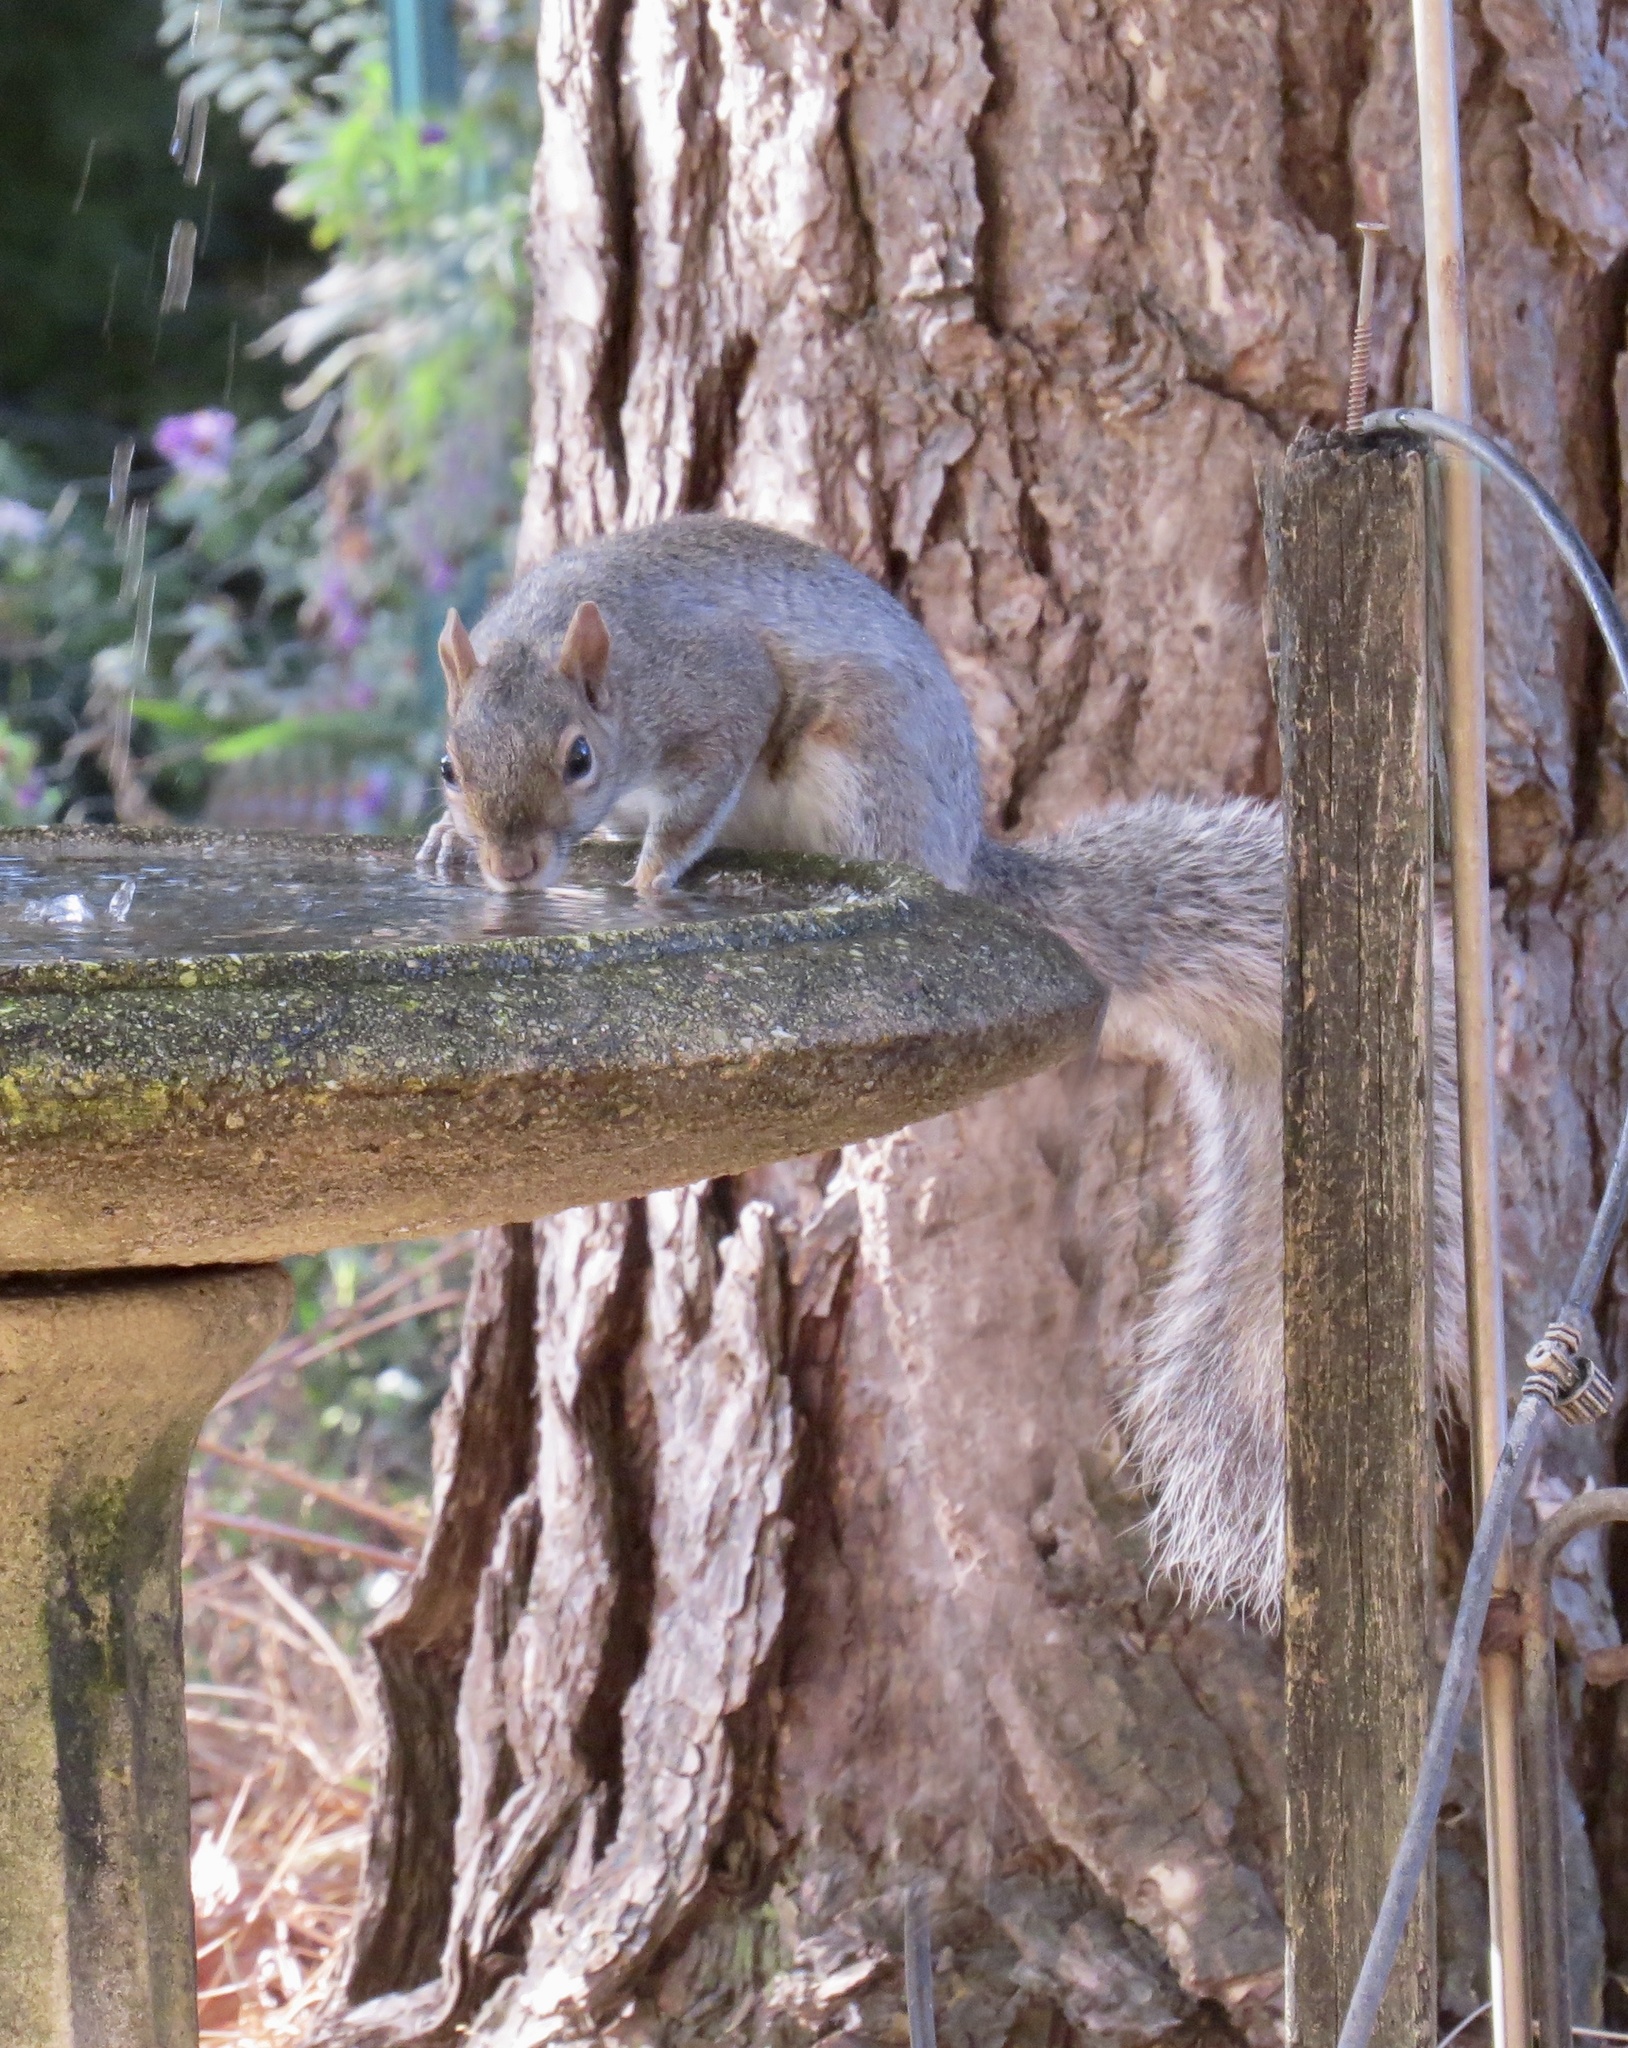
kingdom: Animalia
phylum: Chordata
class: Mammalia
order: Rodentia
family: Sciuridae
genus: Sciurus
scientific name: Sciurus carolinensis
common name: Eastern gray squirrel
